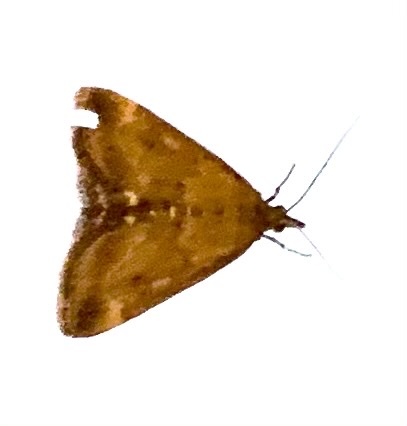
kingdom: Animalia
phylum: Arthropoda
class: Insecta
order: Lepidoptera
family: Crambidae
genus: Pyrausta
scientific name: Pyrausta despicata
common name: Straw-barred pearl
